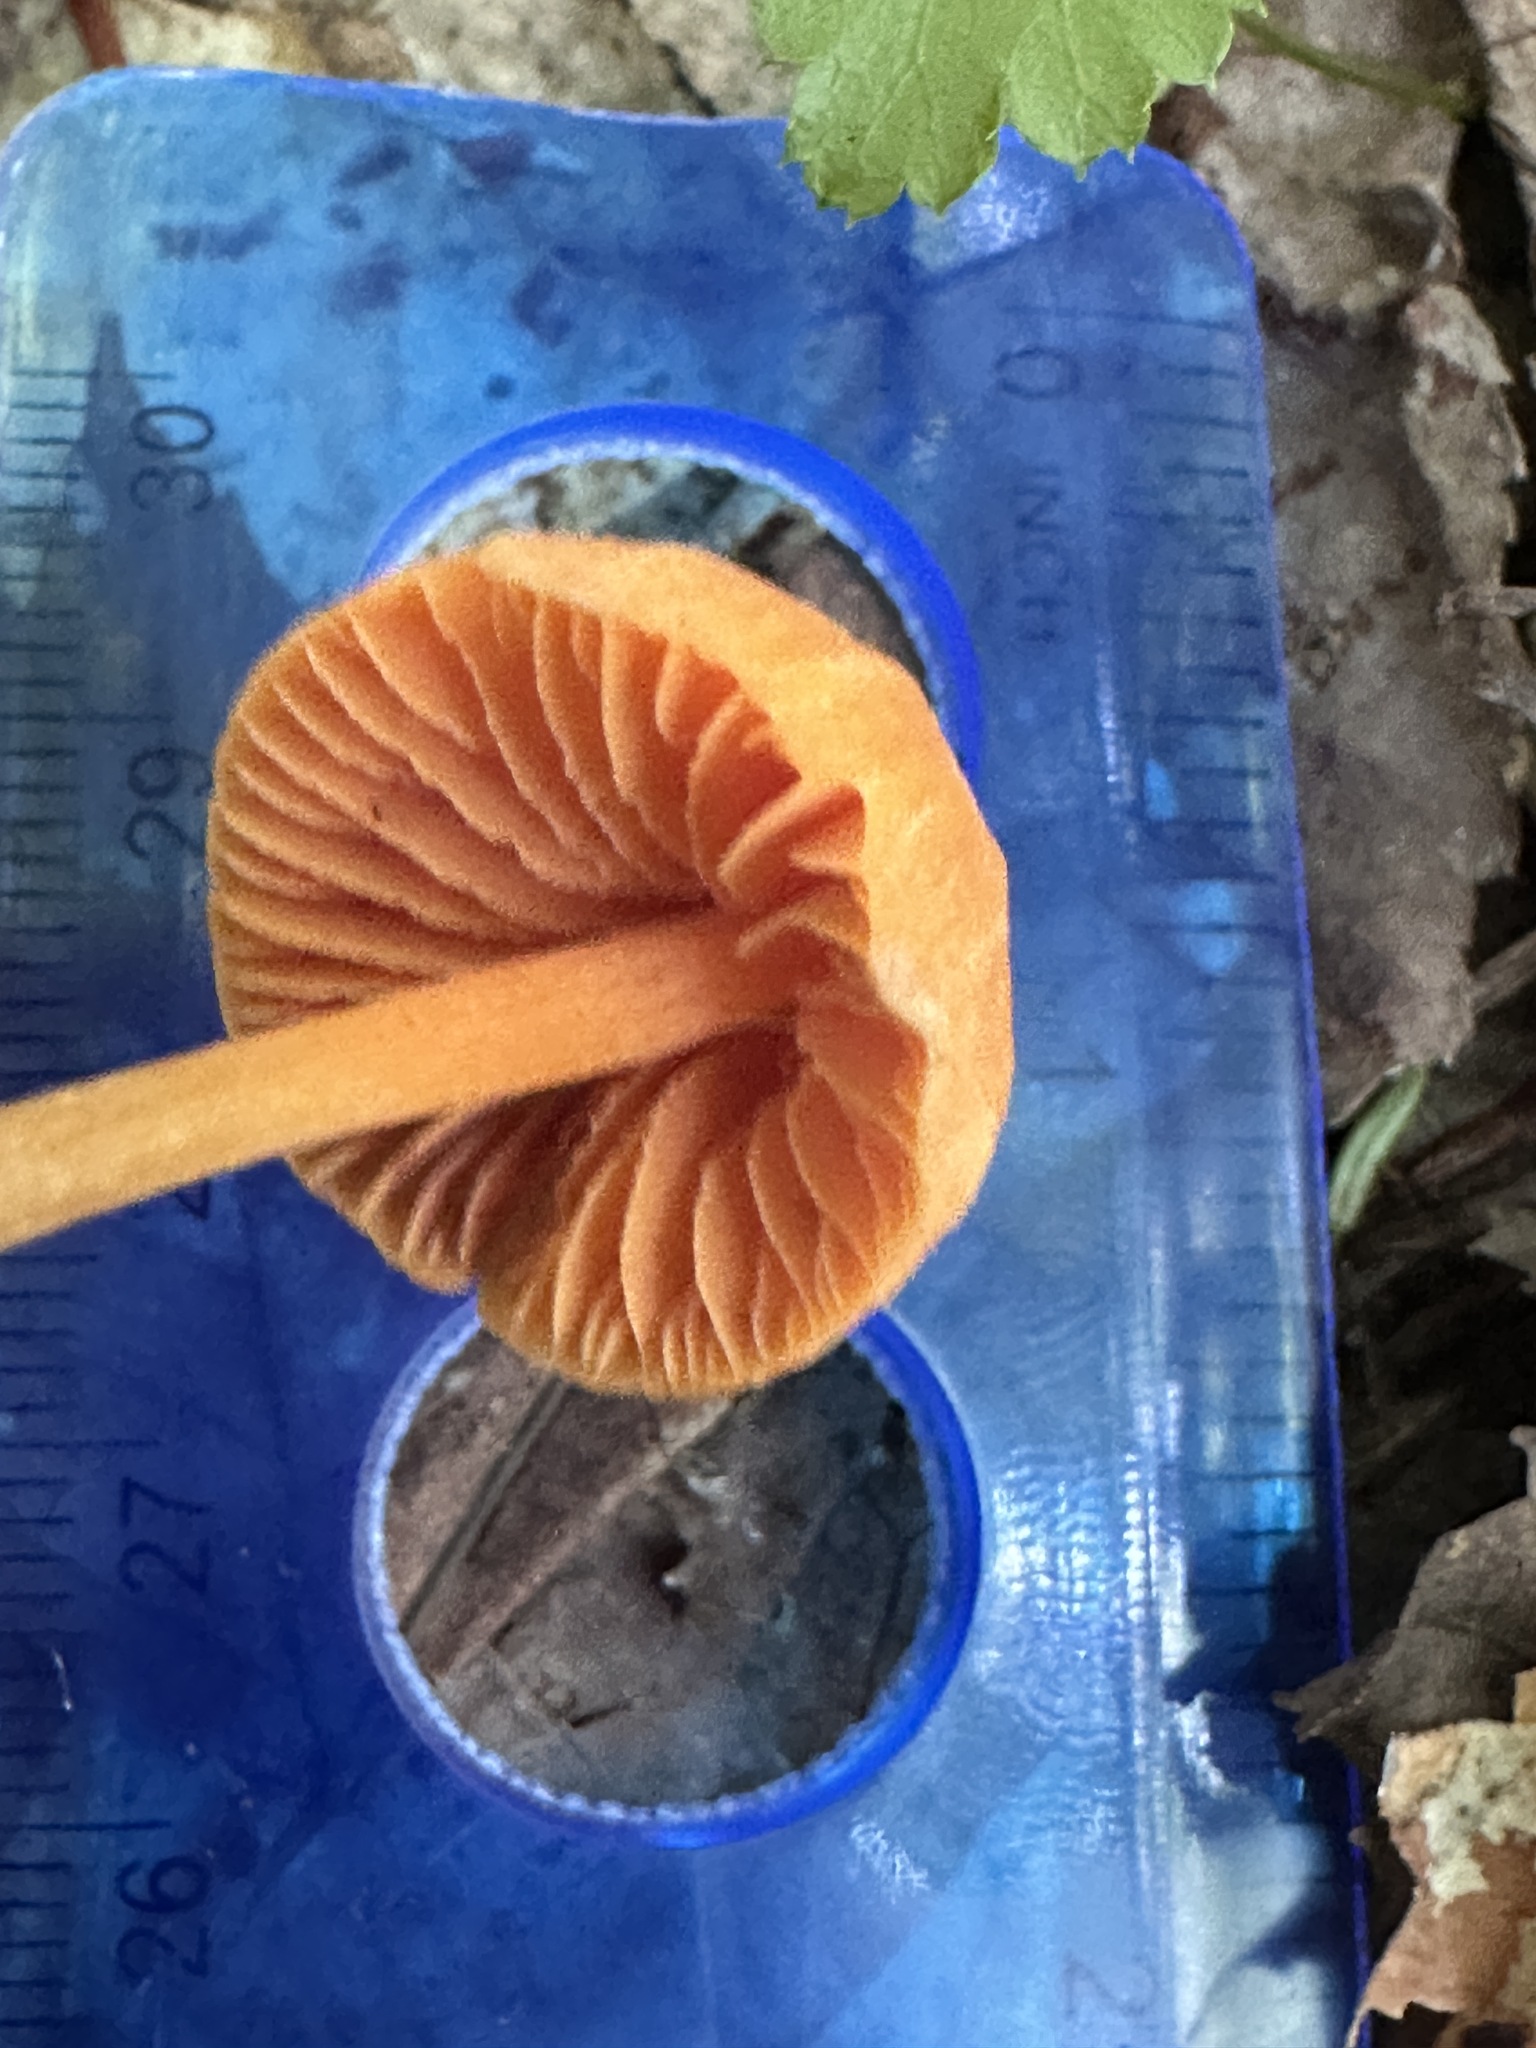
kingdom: Fungi
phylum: Basidiomycota
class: Agaricomycetes
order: Agaricales
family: Entolomataceae
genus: Entoloma
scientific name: Entoloma quadratum
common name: Salmon pinkgill
